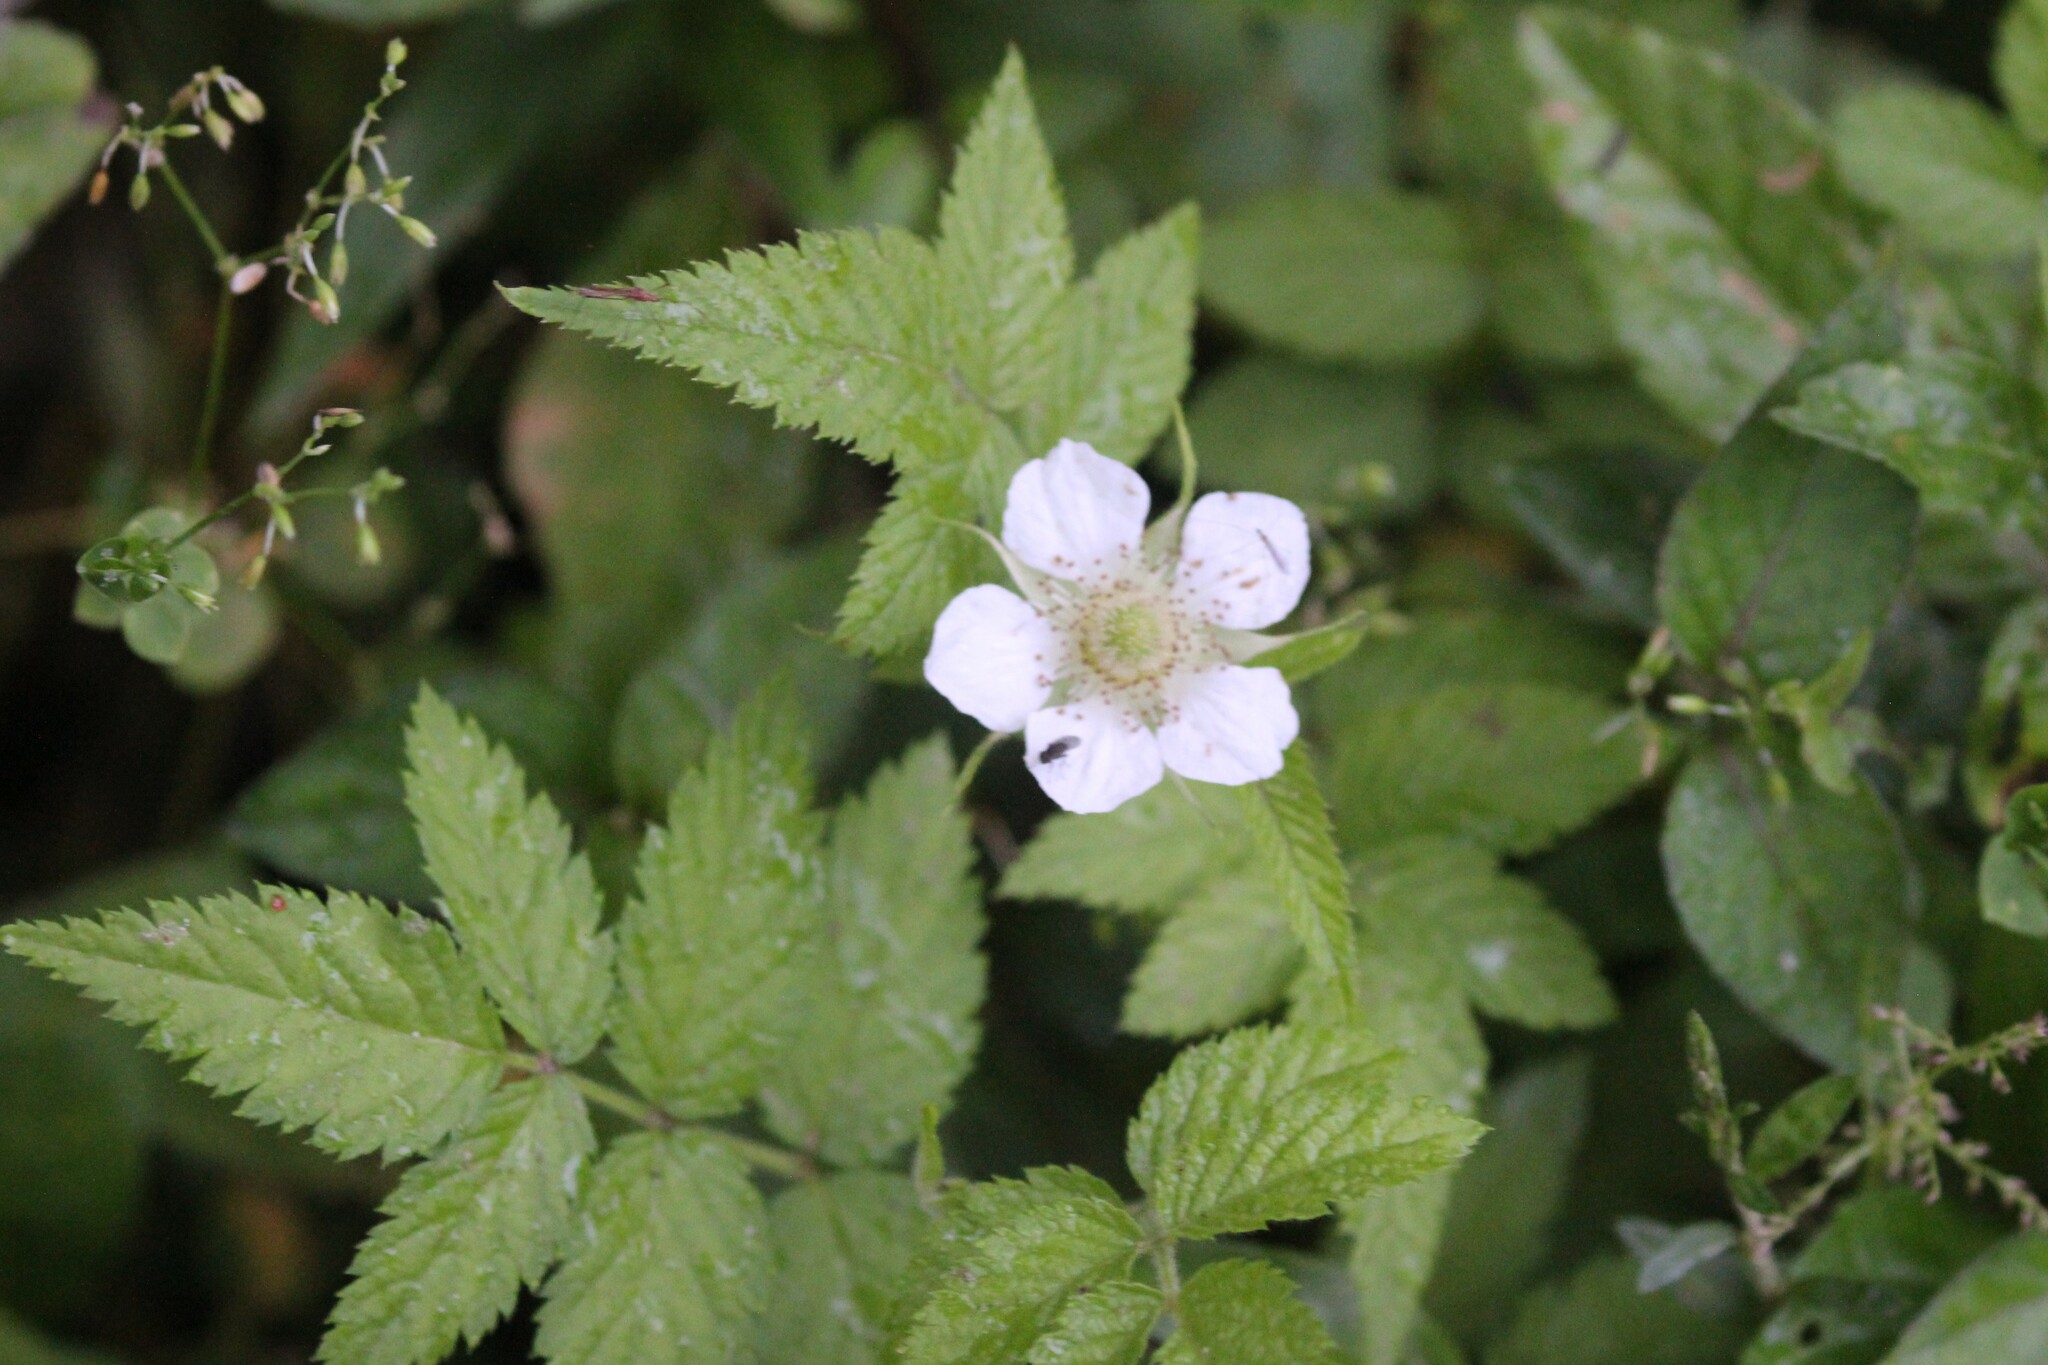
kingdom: Plantae
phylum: Tracheophyta
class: Magnoliopsida
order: Rosales
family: Rosaceae
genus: Rubus
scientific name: Rubus rosifolius
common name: Roseleaf raspberry
